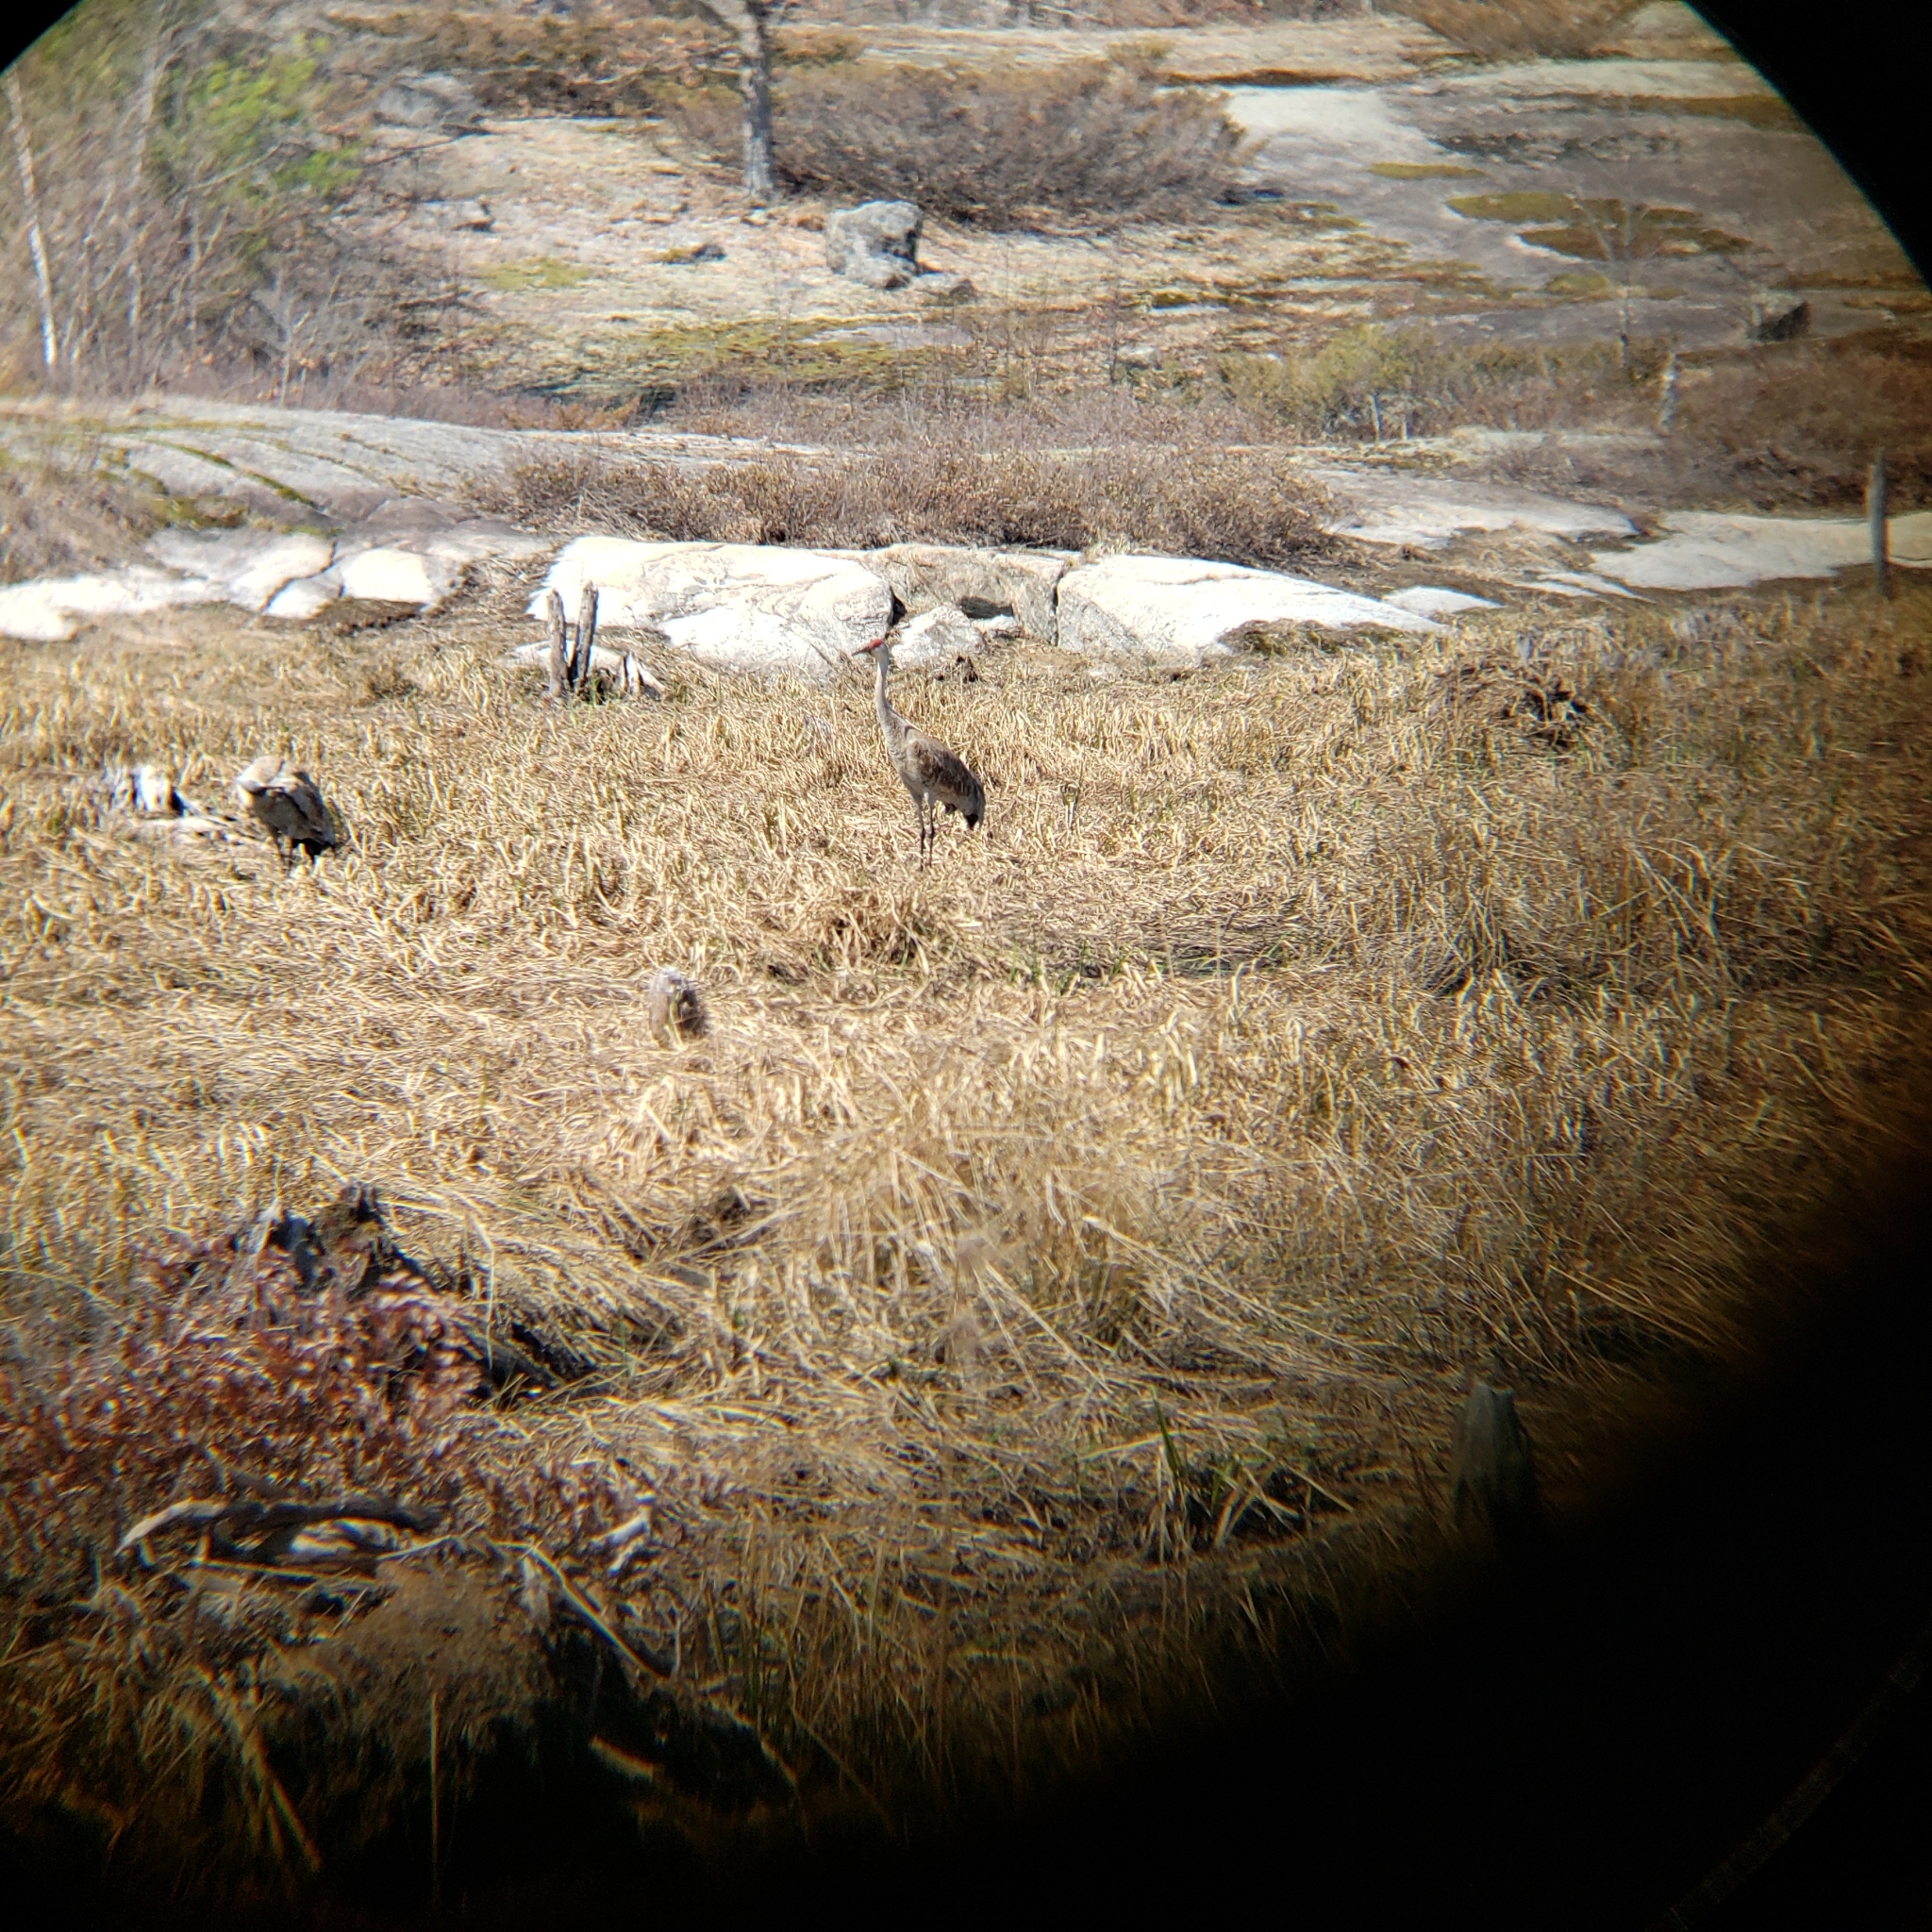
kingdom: Animalia
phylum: Chordata
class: Aves
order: Gruiformes
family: Gruidae
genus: Grus
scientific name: Grus canadensis
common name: Sandhill crane
